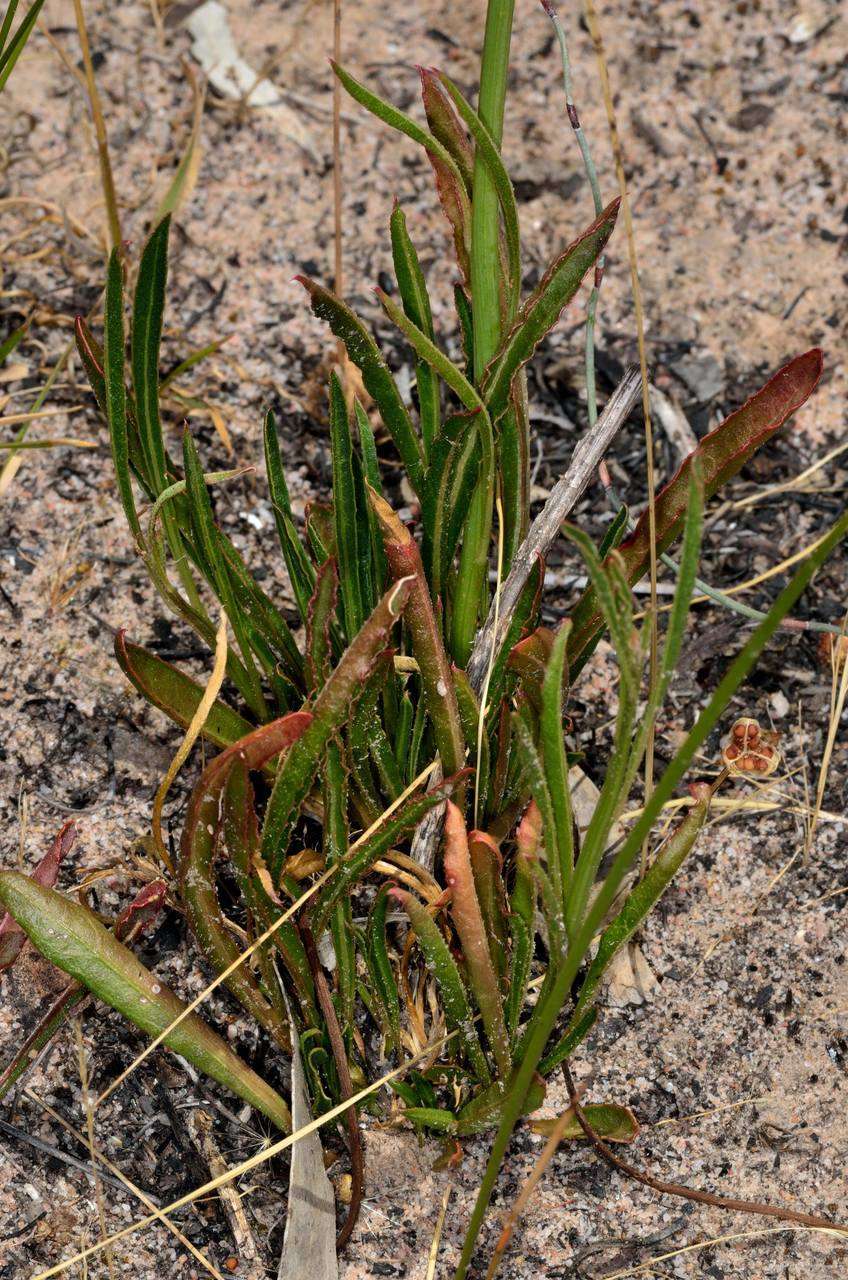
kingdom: Plantae
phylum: Tracheophyta
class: Magnoliopsida
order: Caryophyllales
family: Amaranthaceae
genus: Ptilotus
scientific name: Ptilotus macrocephalus
